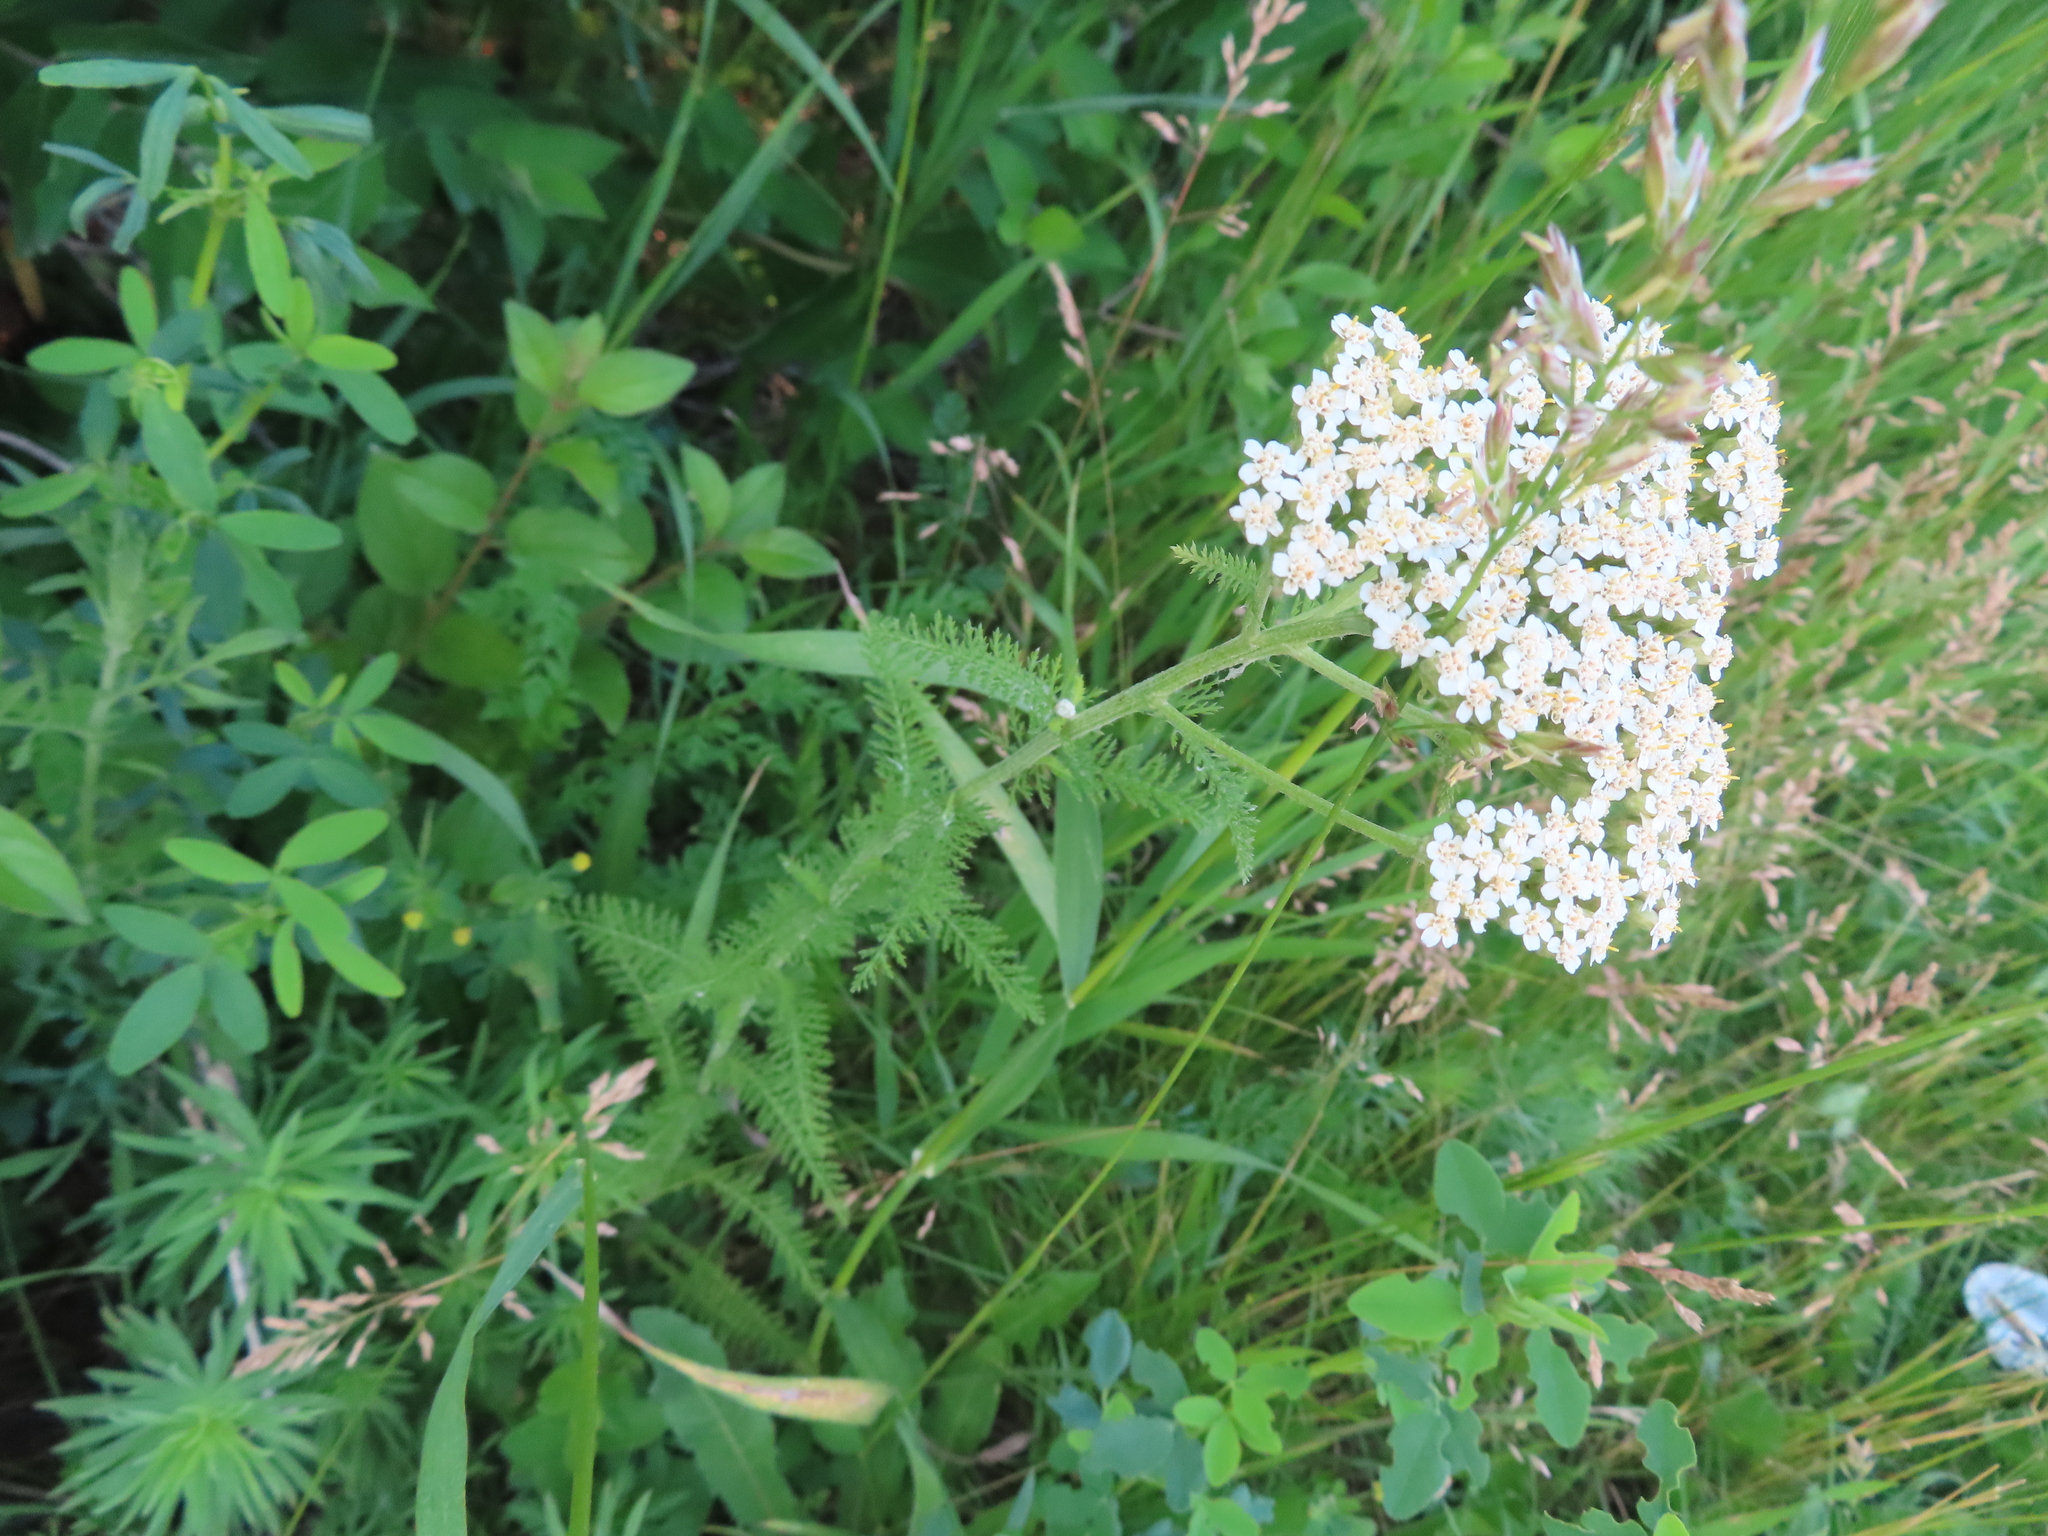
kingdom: Plantae
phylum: Tracheophyta
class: Magnoliopsida
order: Asterales
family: Asteraceae
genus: Achillea
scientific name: Achillea millefolium
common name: Yarrow
